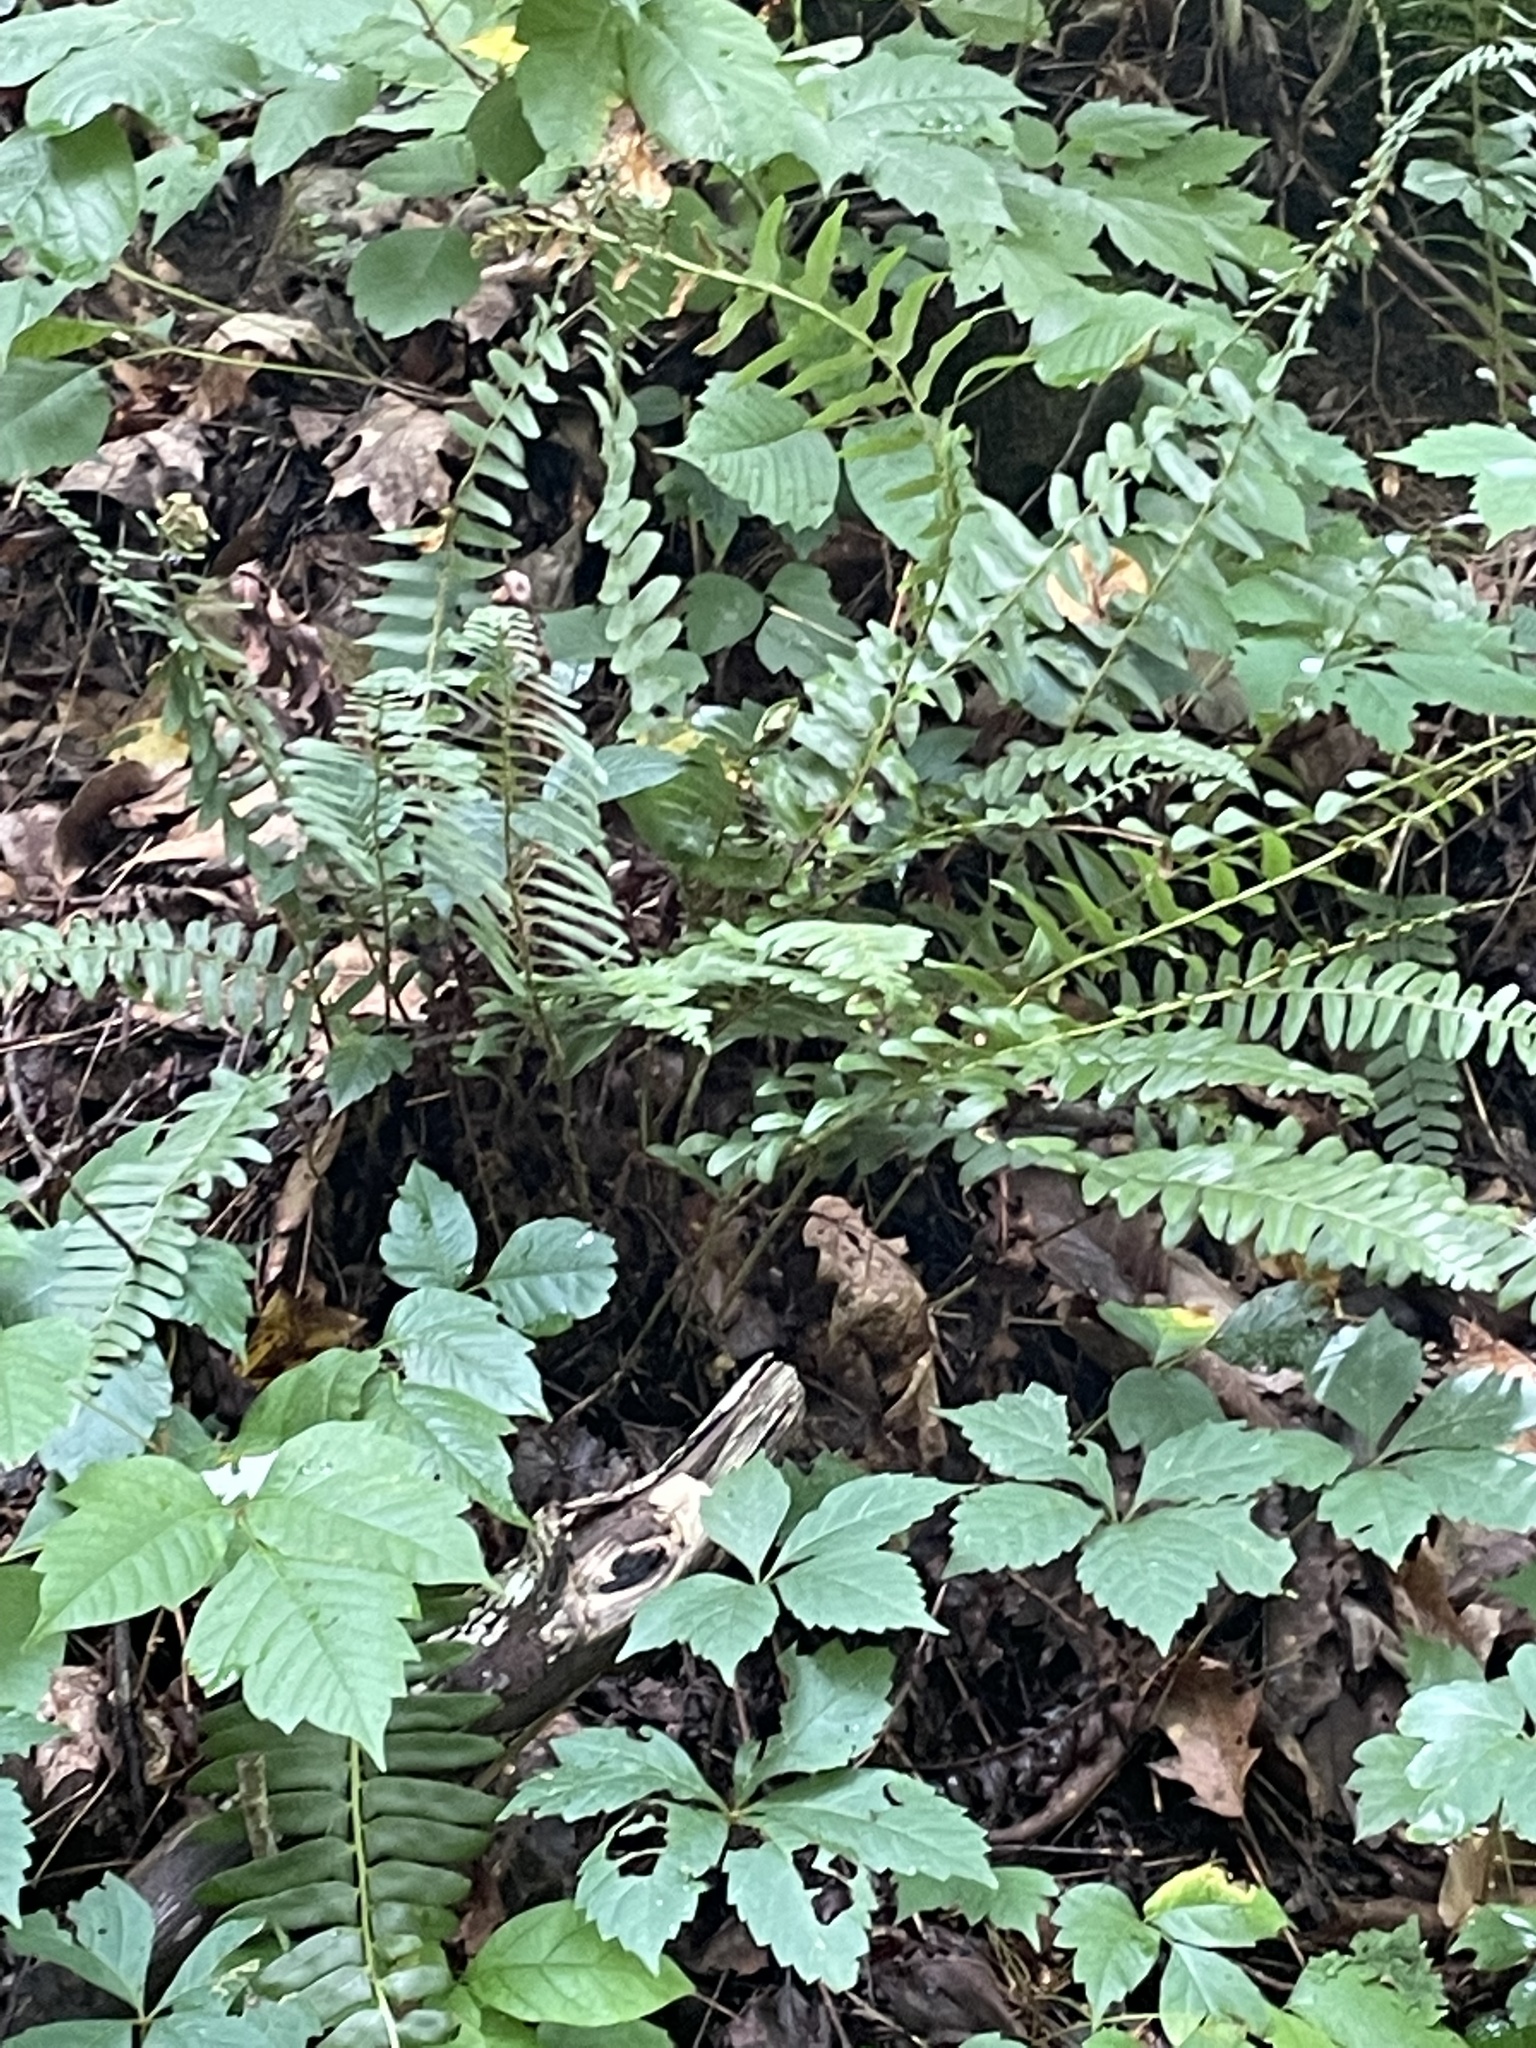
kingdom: Plantae
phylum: Tracheophyta
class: Polypodiopsida
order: Polypodiales
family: Dryopteridaceae
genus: Polystichum
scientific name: Polystichum acrostichoides
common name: Christmas fern
